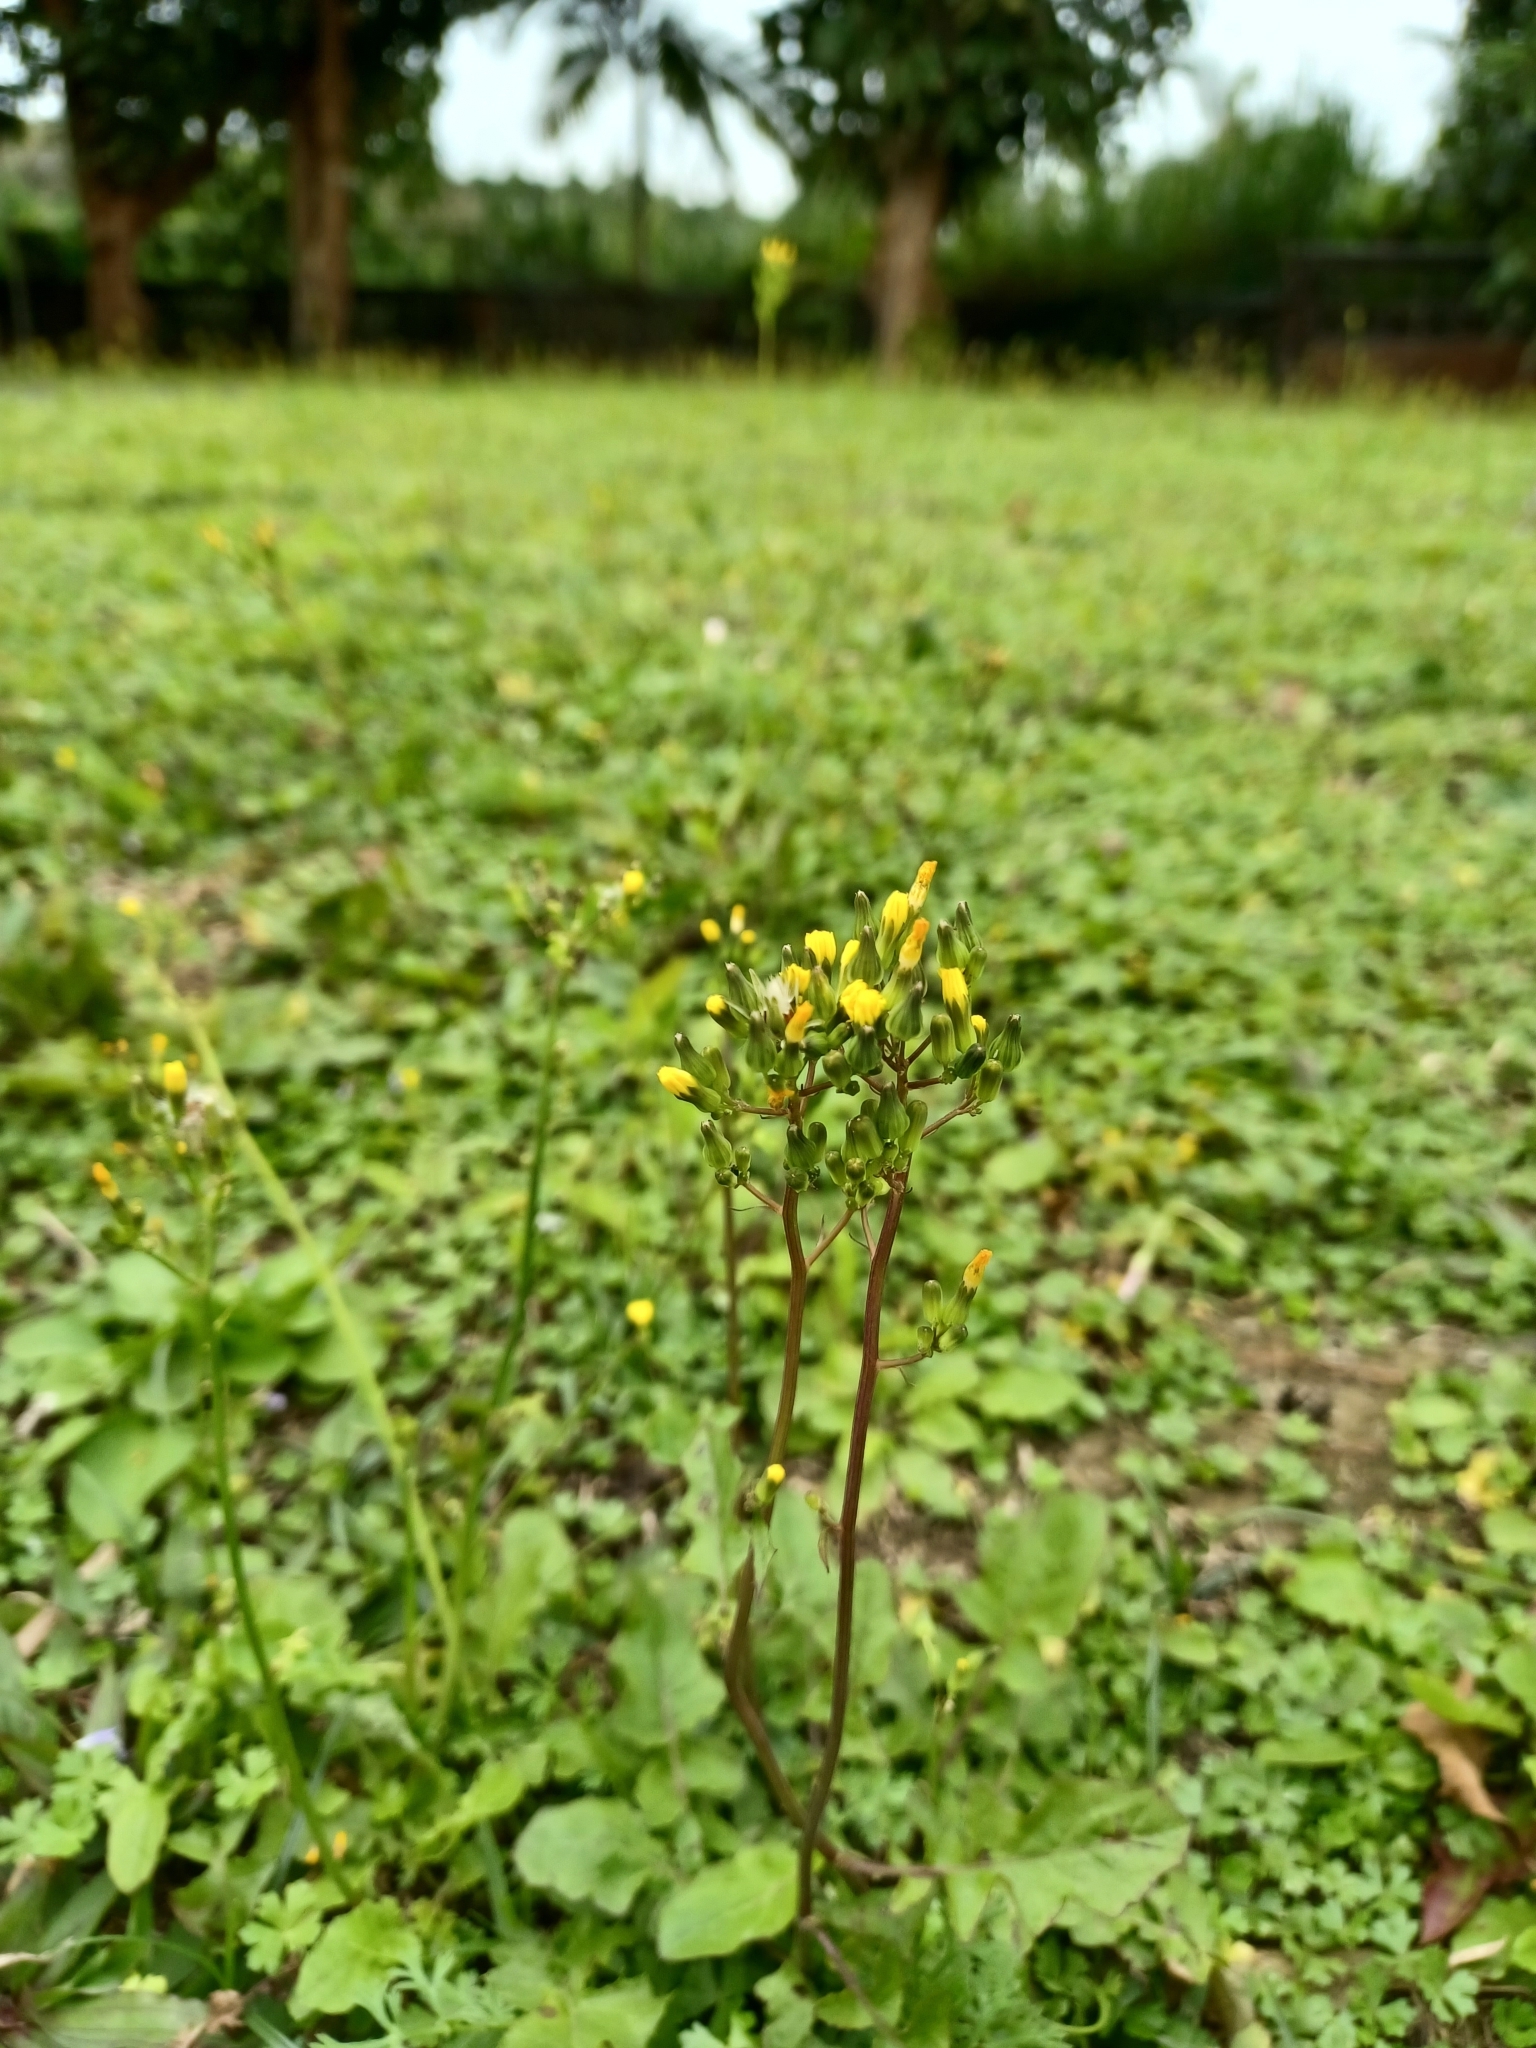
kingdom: Plantae
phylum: Tracheophyta
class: Magnoliopsida
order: Asterales
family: Asteraceae
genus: Senecio
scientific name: Senecio vulgaris
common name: Old-man-in-the-spring
